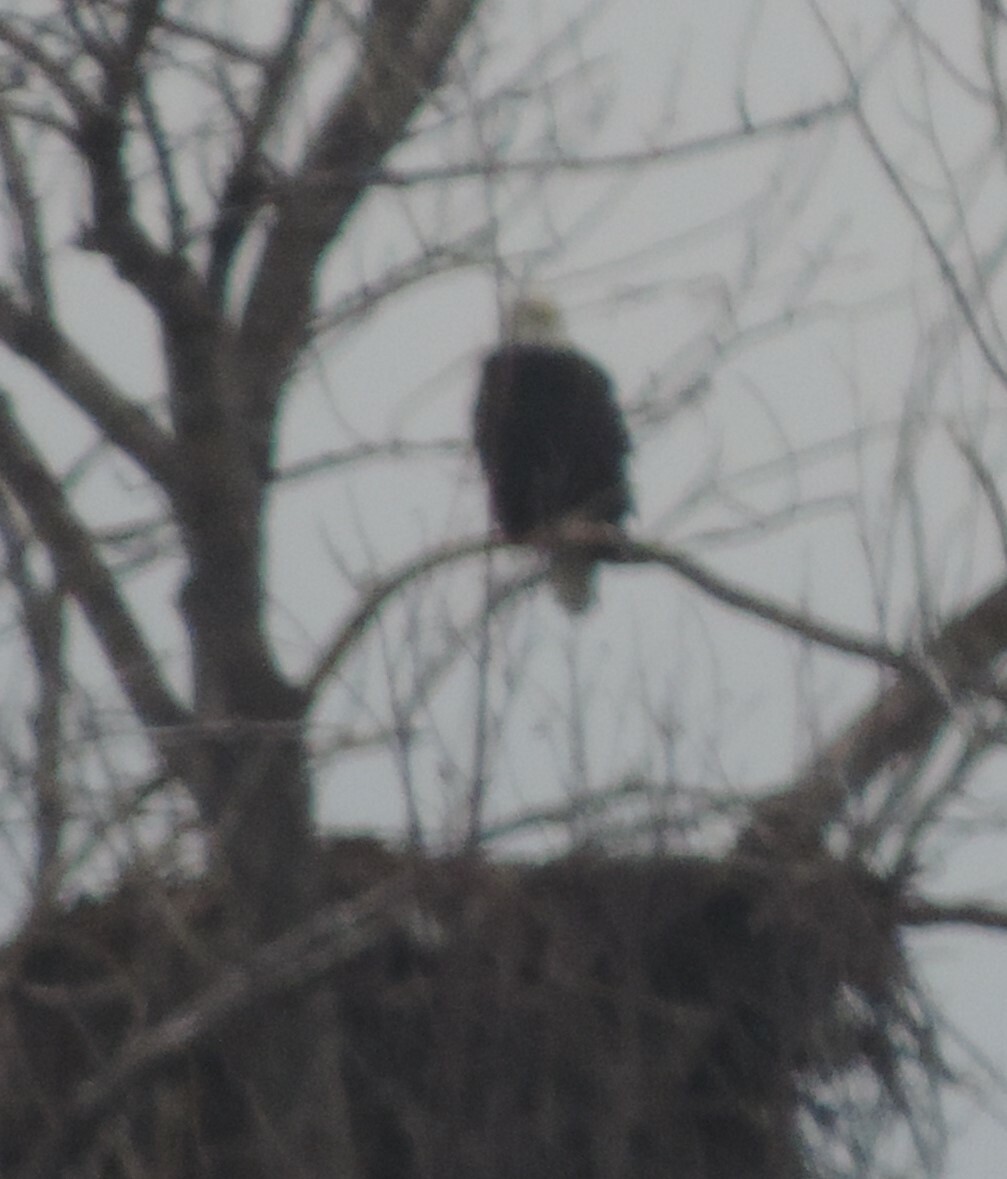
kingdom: Animalia
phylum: Chordata
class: Aves
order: Accipitriformes
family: Accipitridae
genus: Haliaeetus
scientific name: Haliaeetus leucocephalus
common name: Bald eagle
